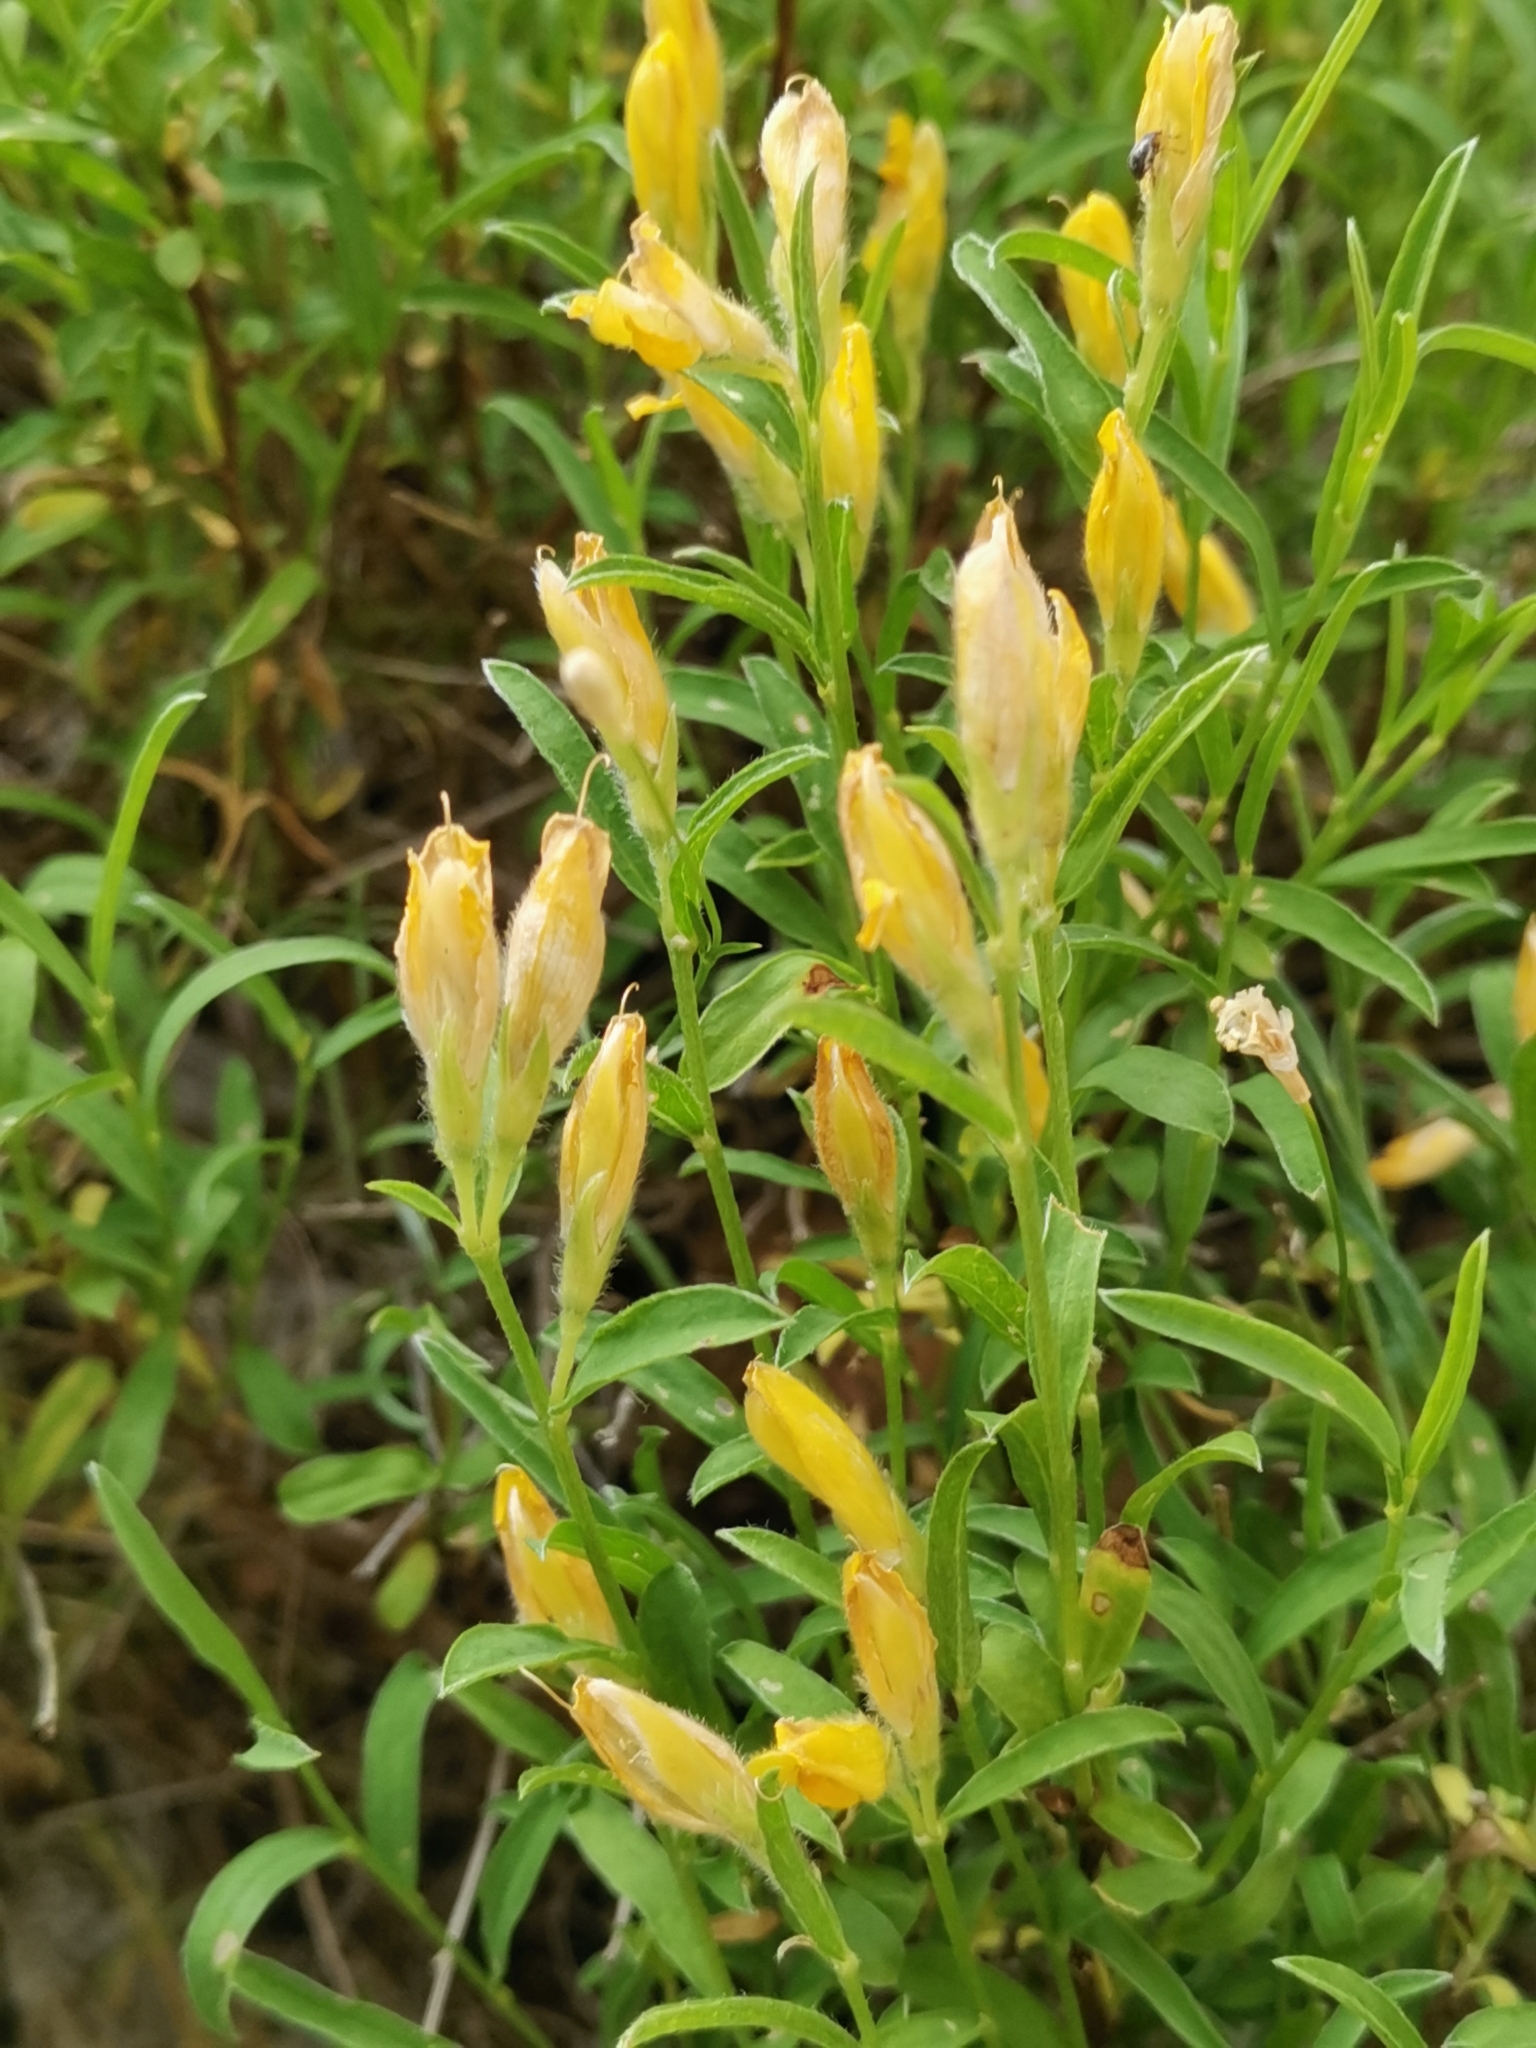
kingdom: Plantae
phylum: Tracheophyta
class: Magnoliopsida
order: Fabales
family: Fabaceae
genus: Genista
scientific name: Genista sericea
